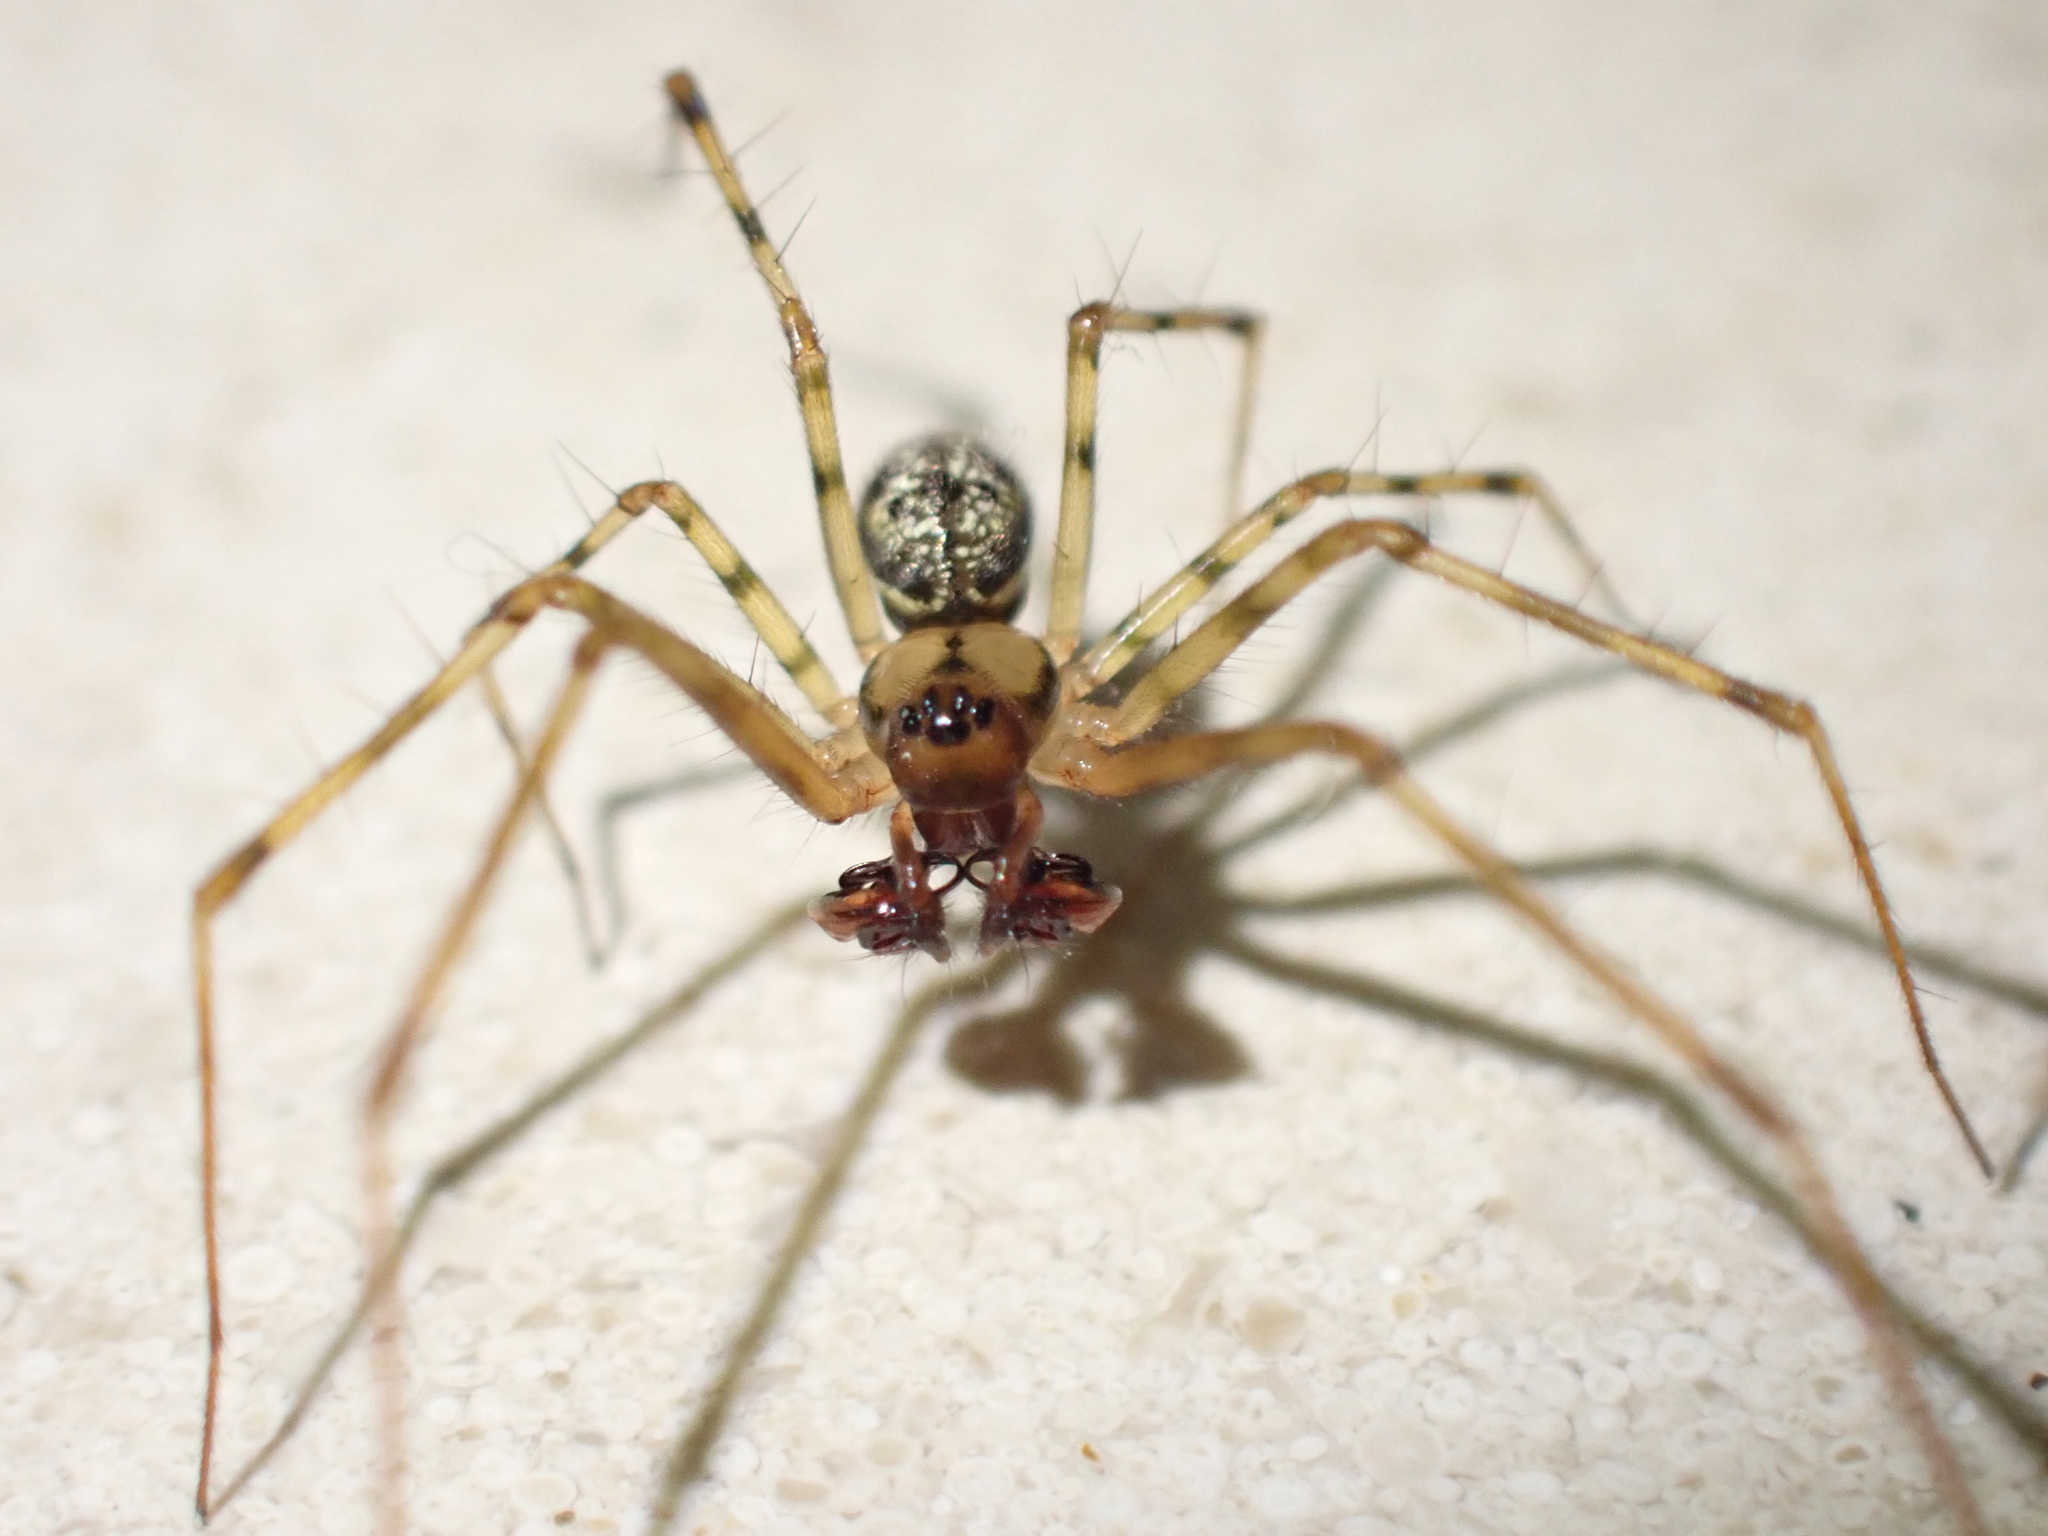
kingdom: Animalia
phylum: Arthropoda
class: Arachnida
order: Araneae
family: Linyphiidae
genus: Labulla
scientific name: Labulla thoracica
